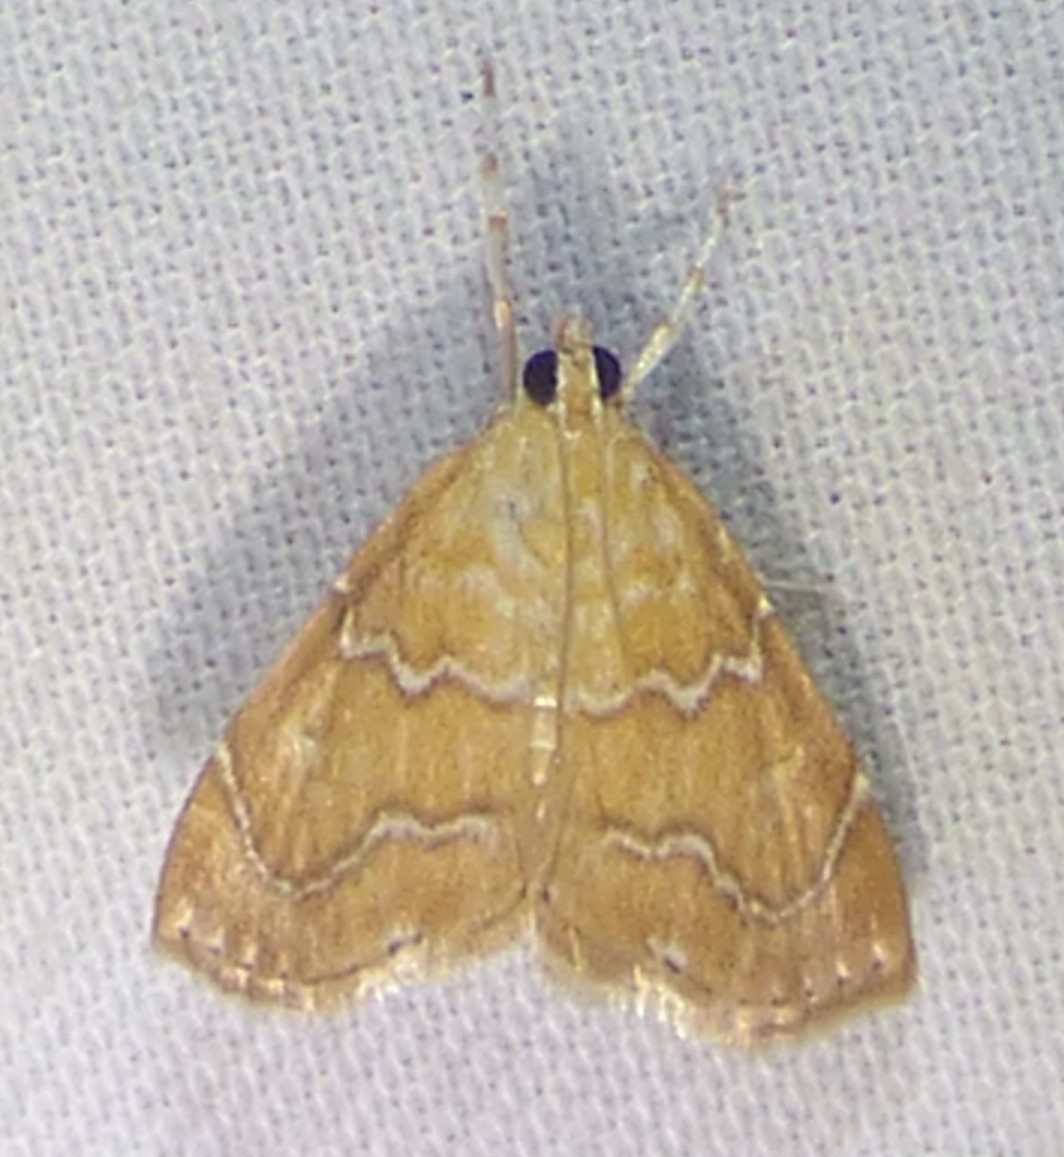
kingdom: Animalia
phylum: Arthropoda
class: Insecta
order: Lepidoptera
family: Crambidae
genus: Glaphyria
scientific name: Glaphyria sesquistrialis
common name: White-roped glaphyria
